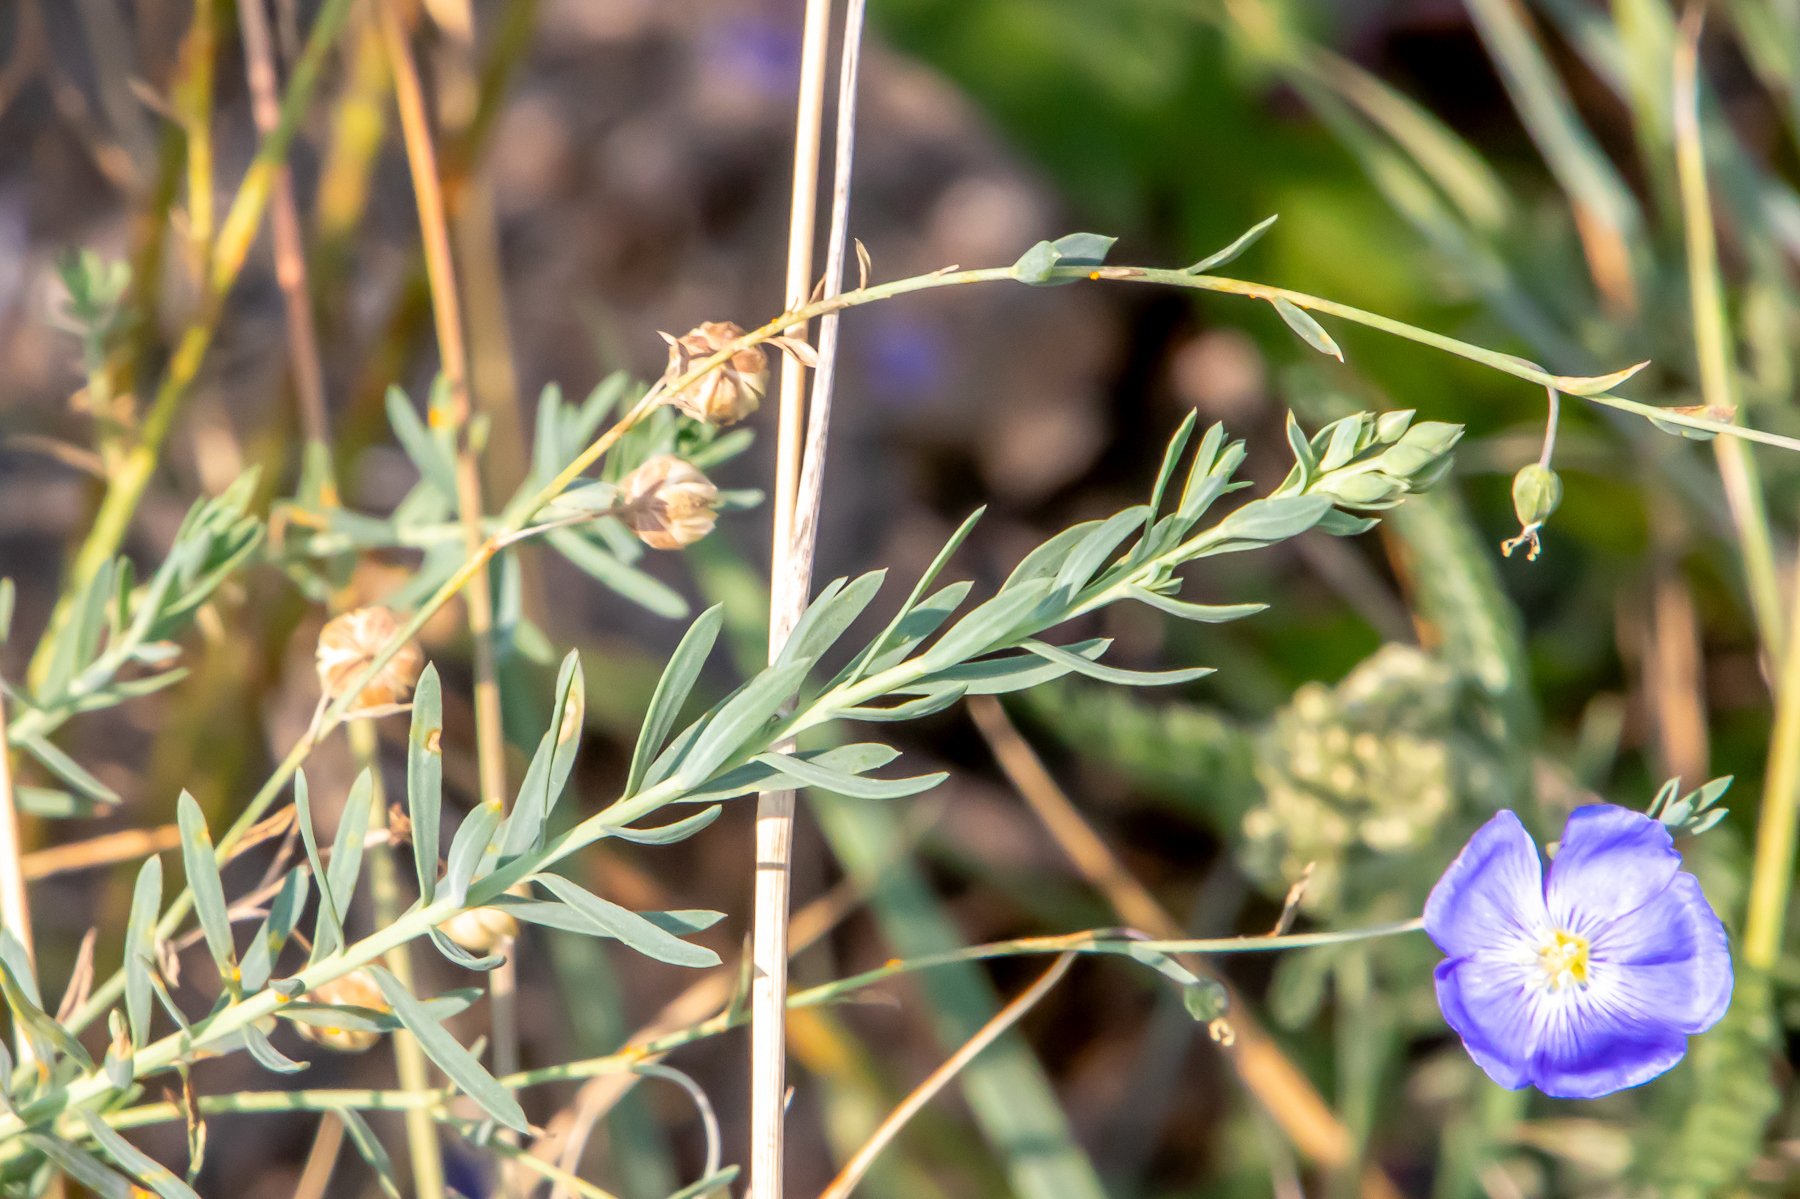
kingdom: Plantae
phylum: Tracheophyta
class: Magnoliopsida
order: Malpighiales
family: Linaceae
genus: Linum
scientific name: Linum lewisii
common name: Prairie flax
